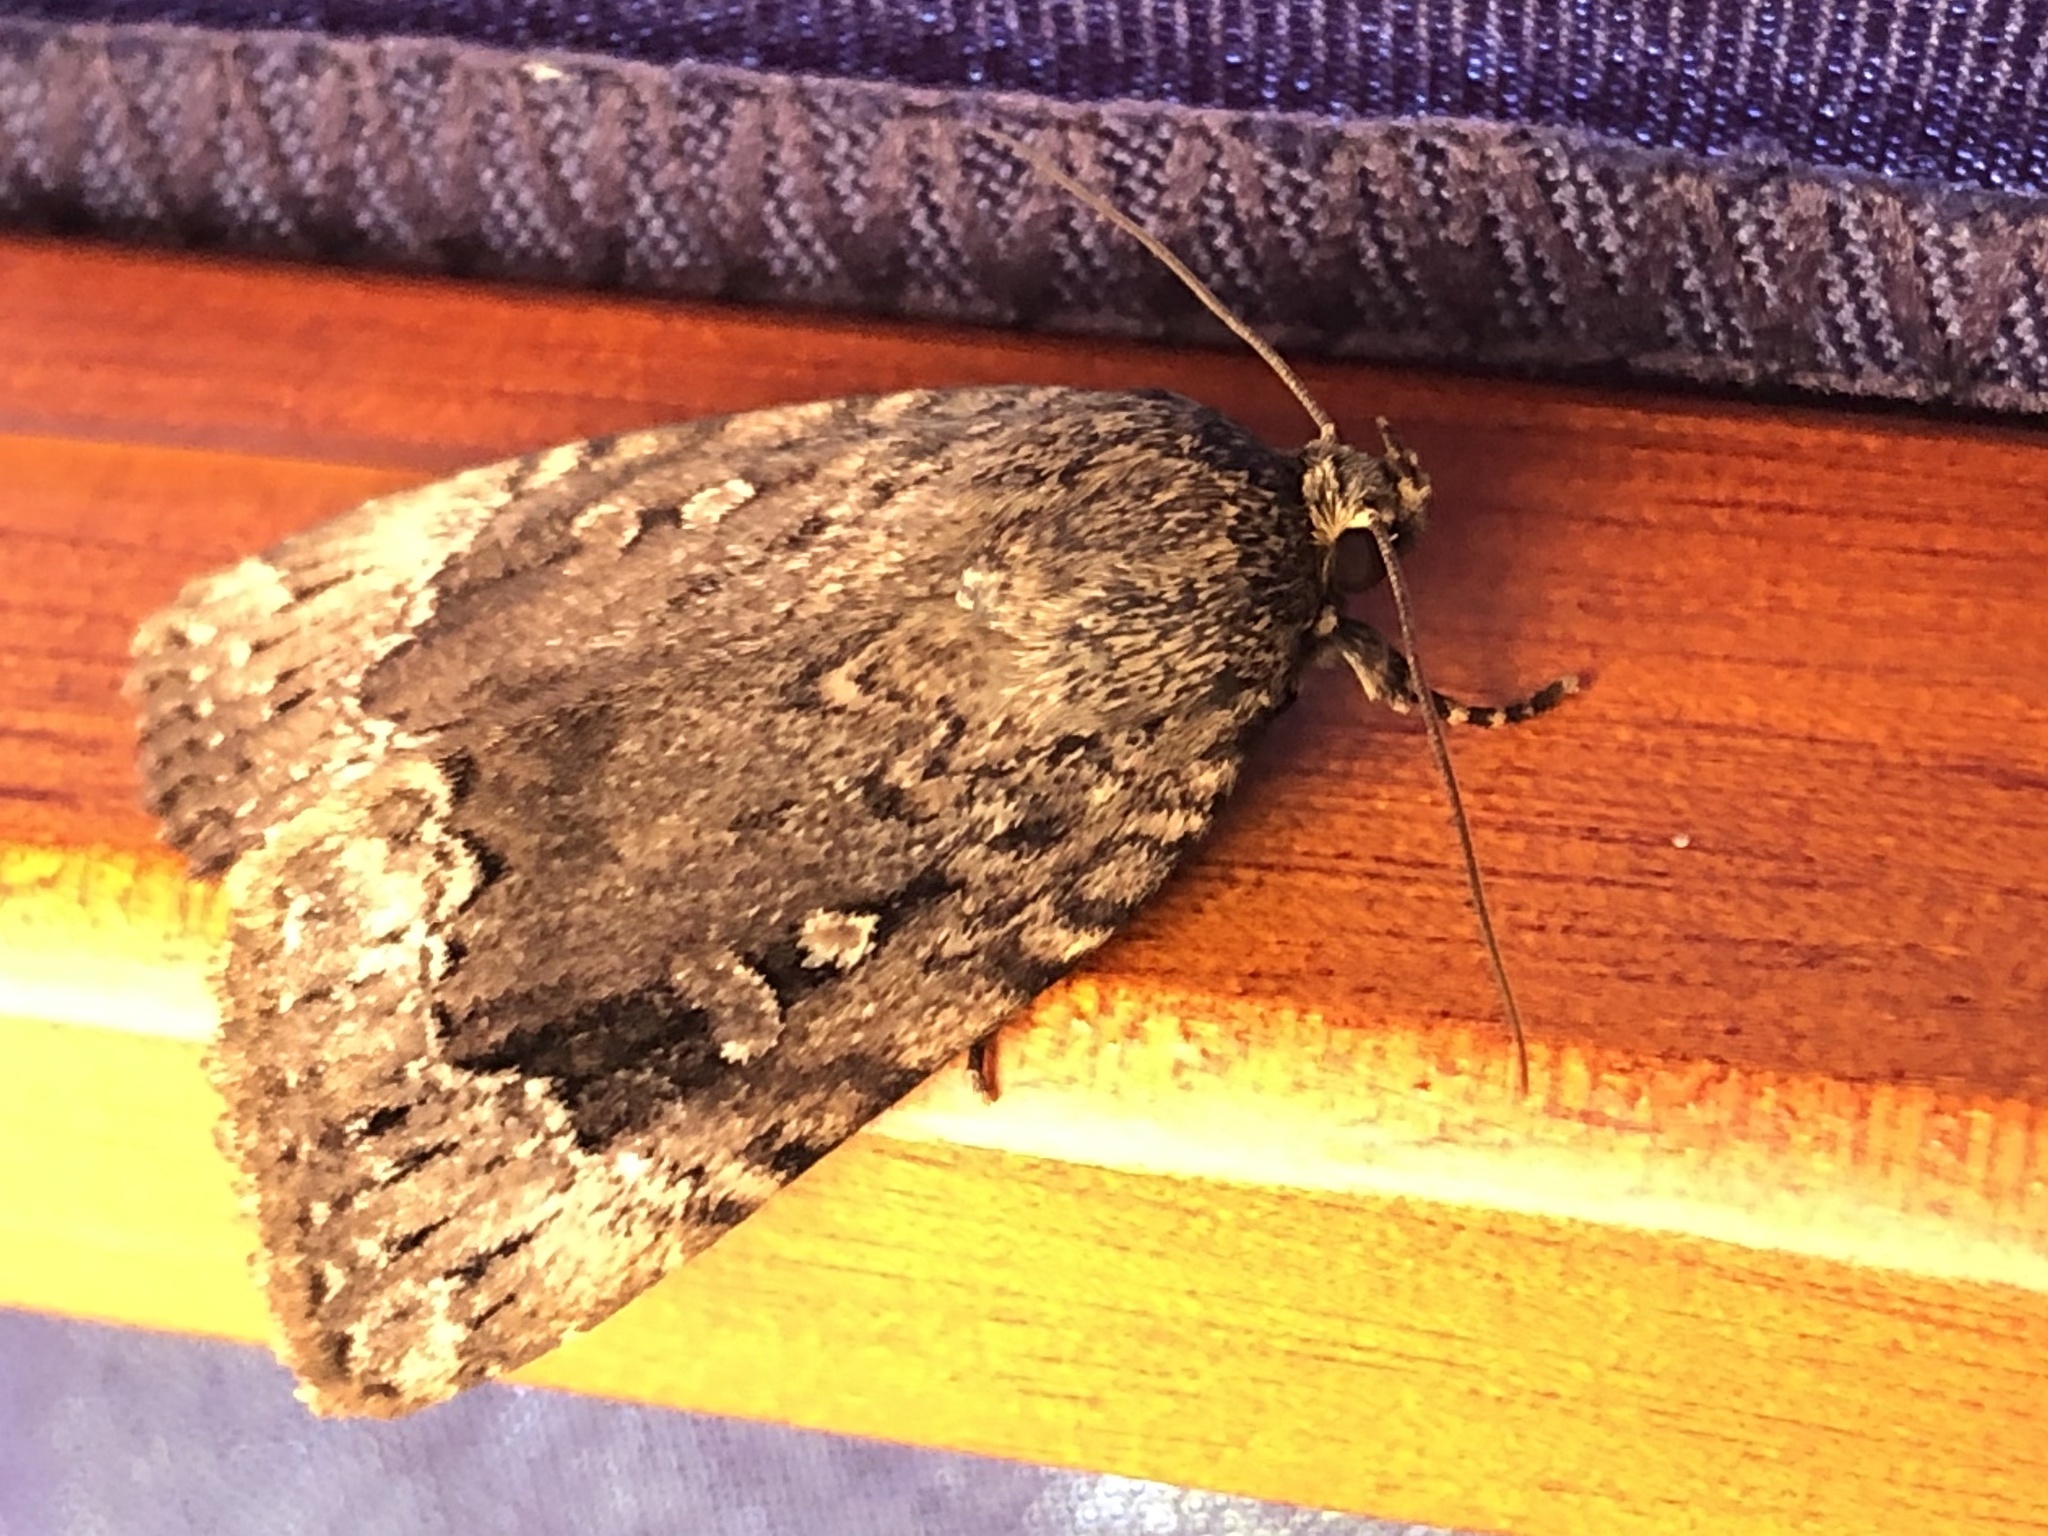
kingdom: Animalia
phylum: Arthropoda
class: Insecta
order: Lepidoptera
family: Noctuidae
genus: Amphipyra
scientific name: Amphipyra pyramidoides
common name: American copper underwing
